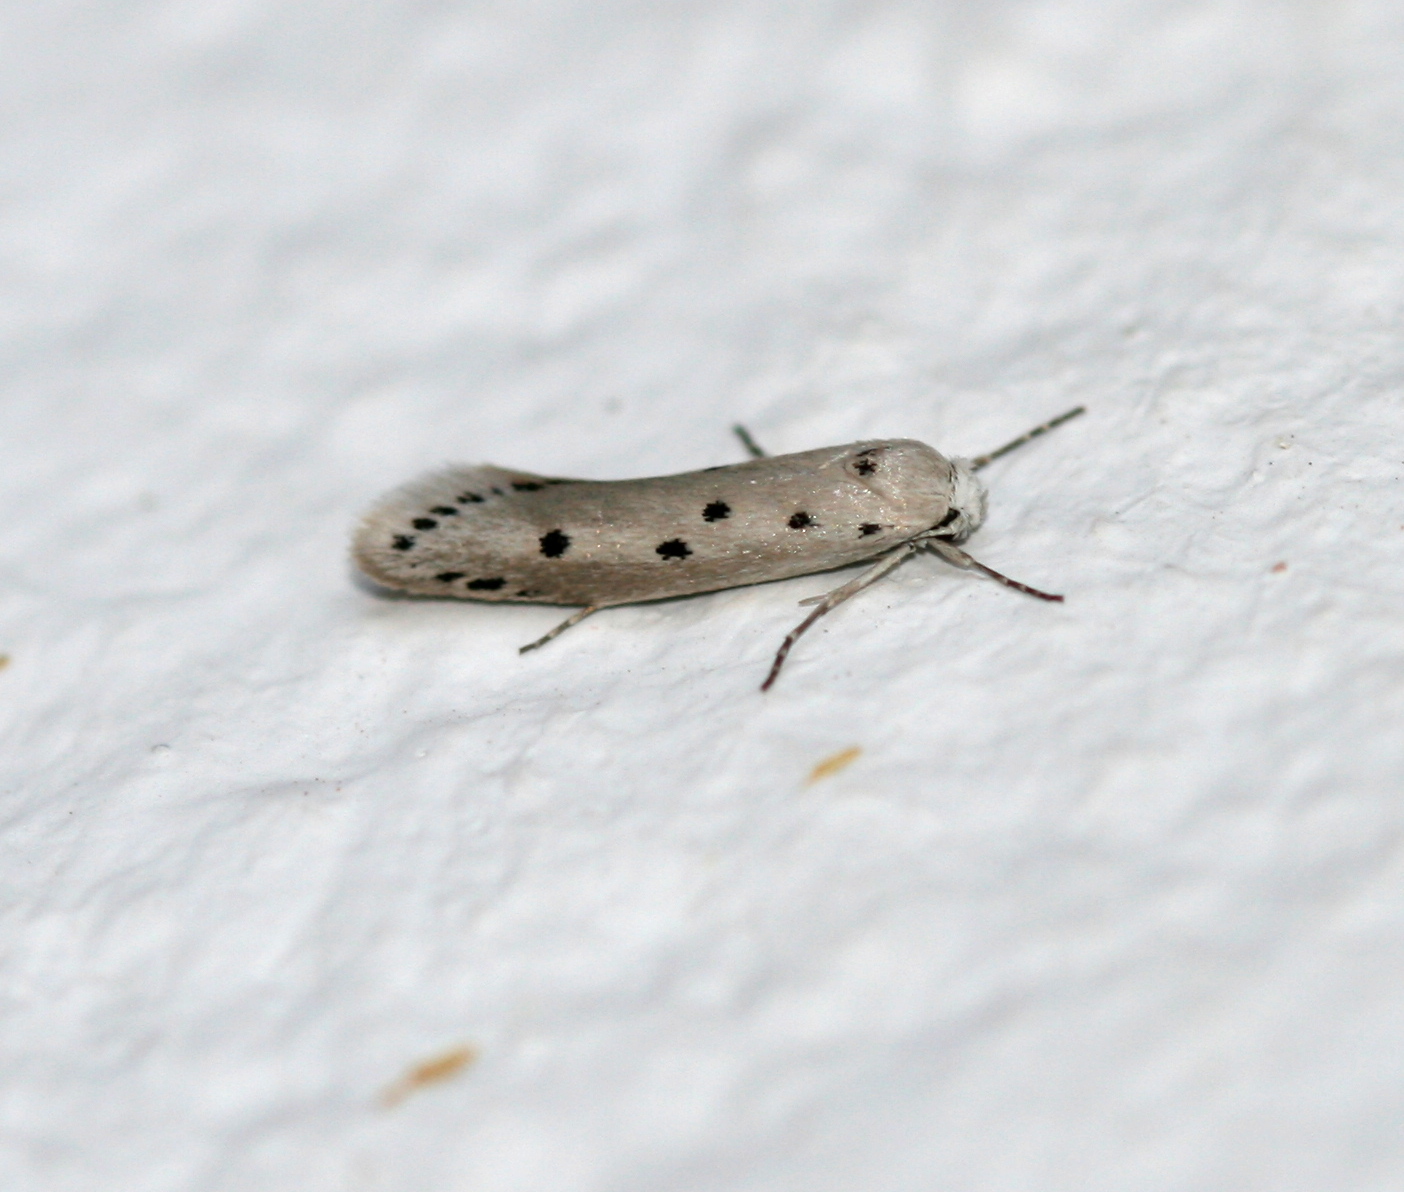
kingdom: Animalia
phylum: Arthropoda
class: Insecta
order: Lepidoptera
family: Ethmiidae
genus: Ethmia
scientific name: Ethmia quadrinotella
